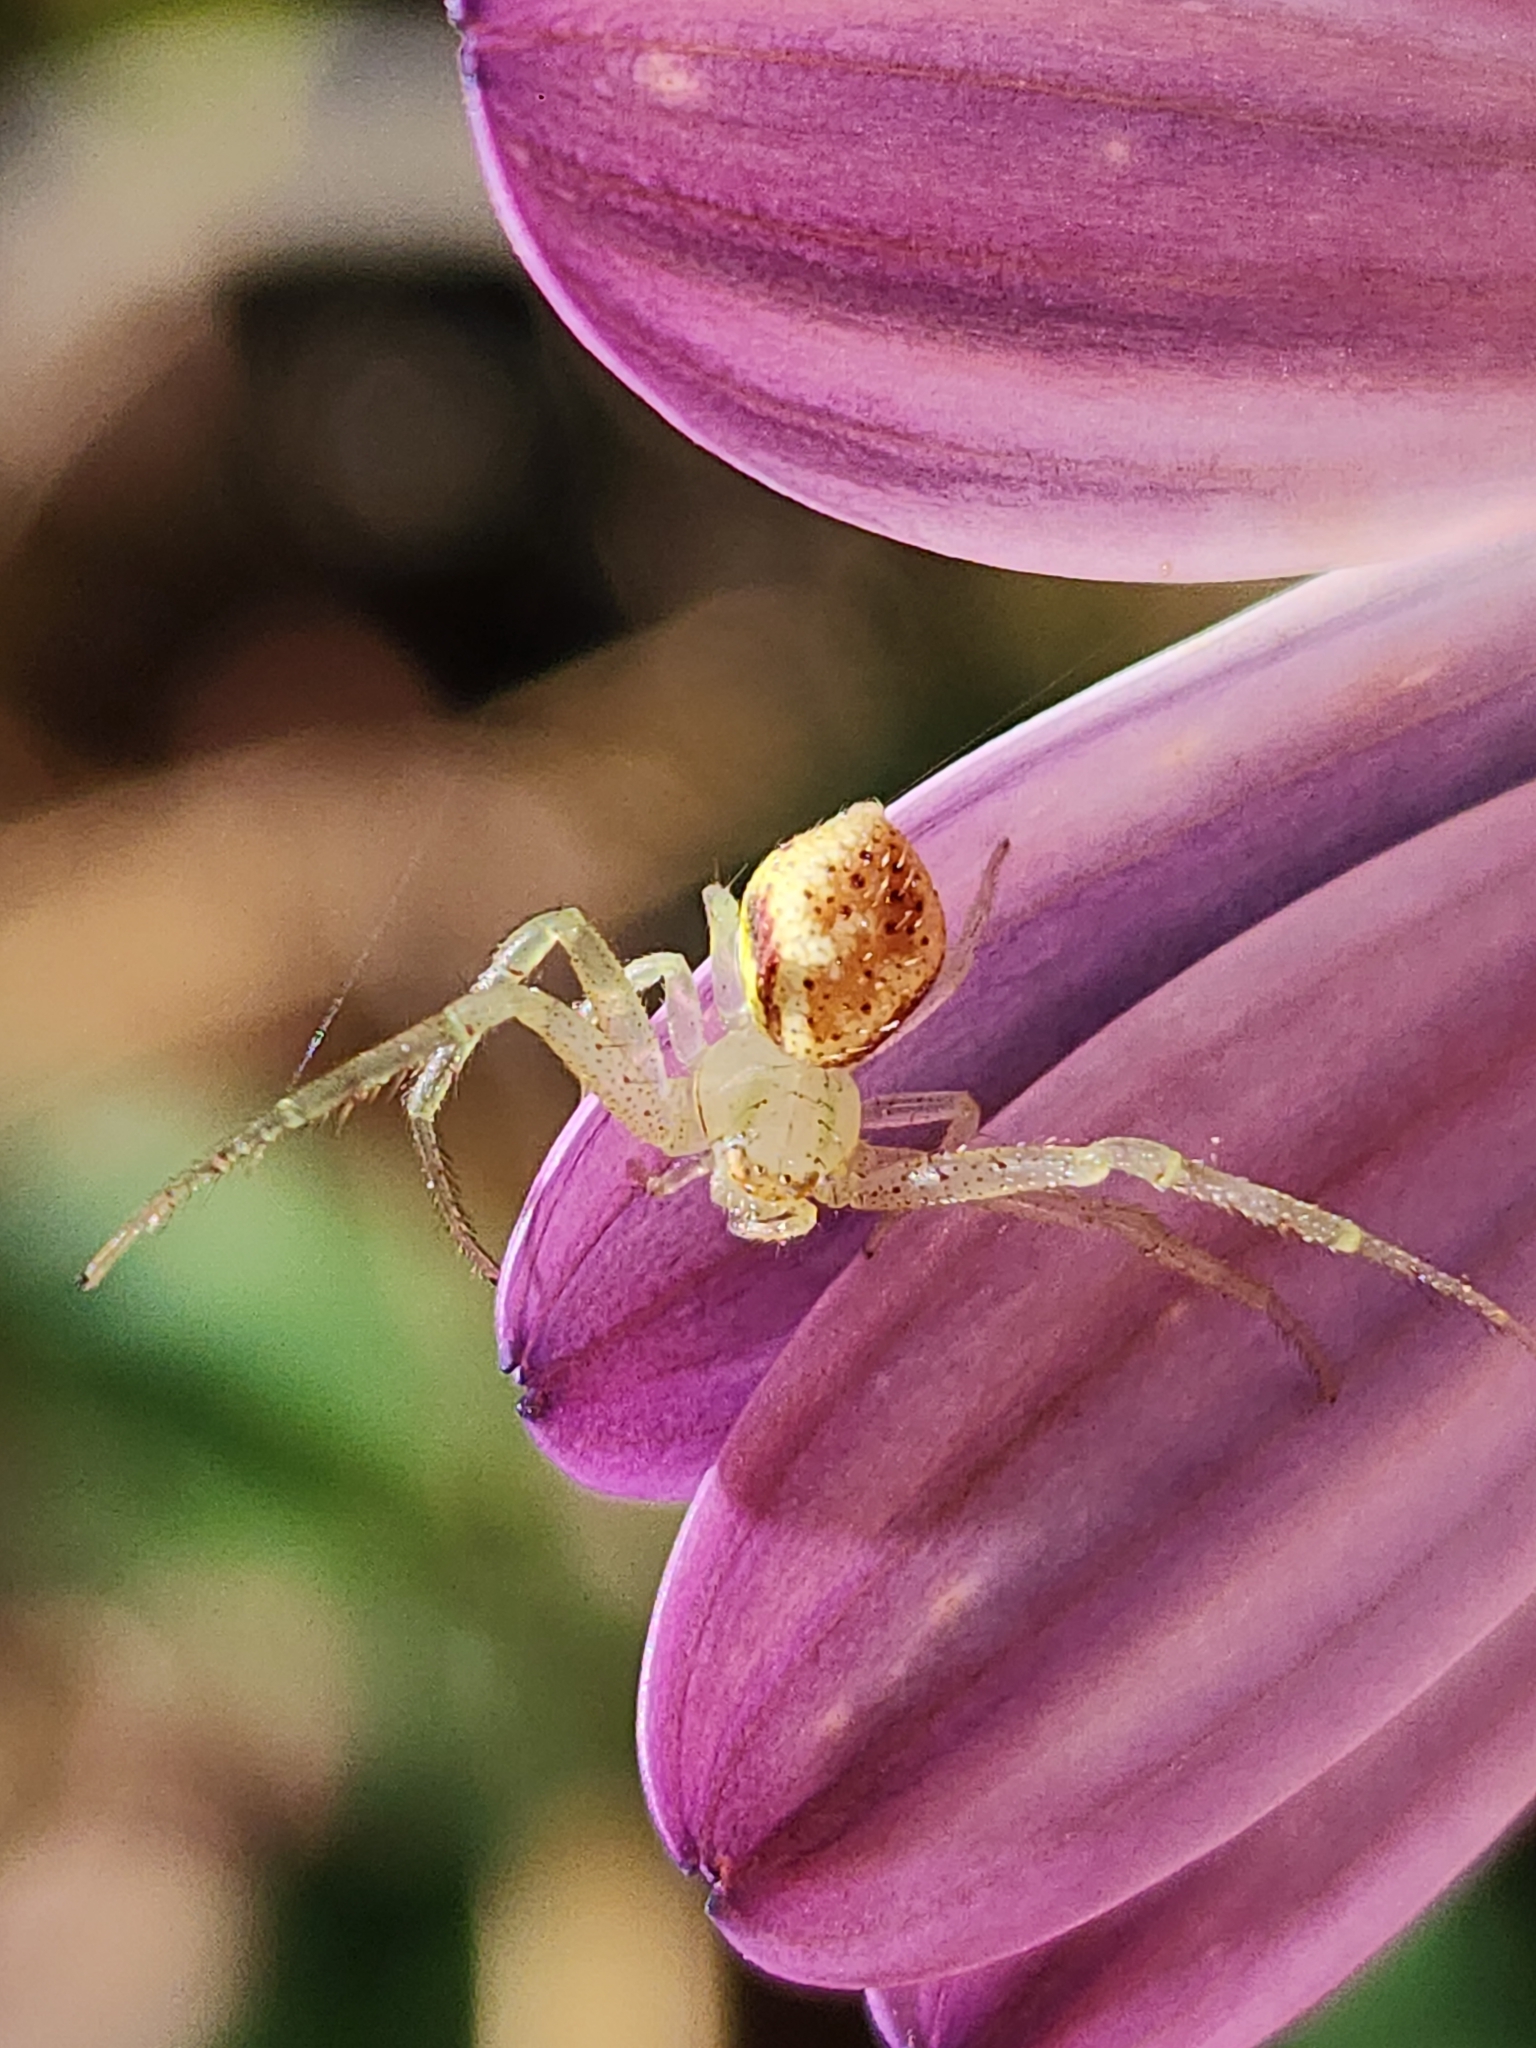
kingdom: Animalia
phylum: Arthropoda
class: Arachnida
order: Araneae
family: Thomisidae
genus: Misumenops
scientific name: Misumenops
